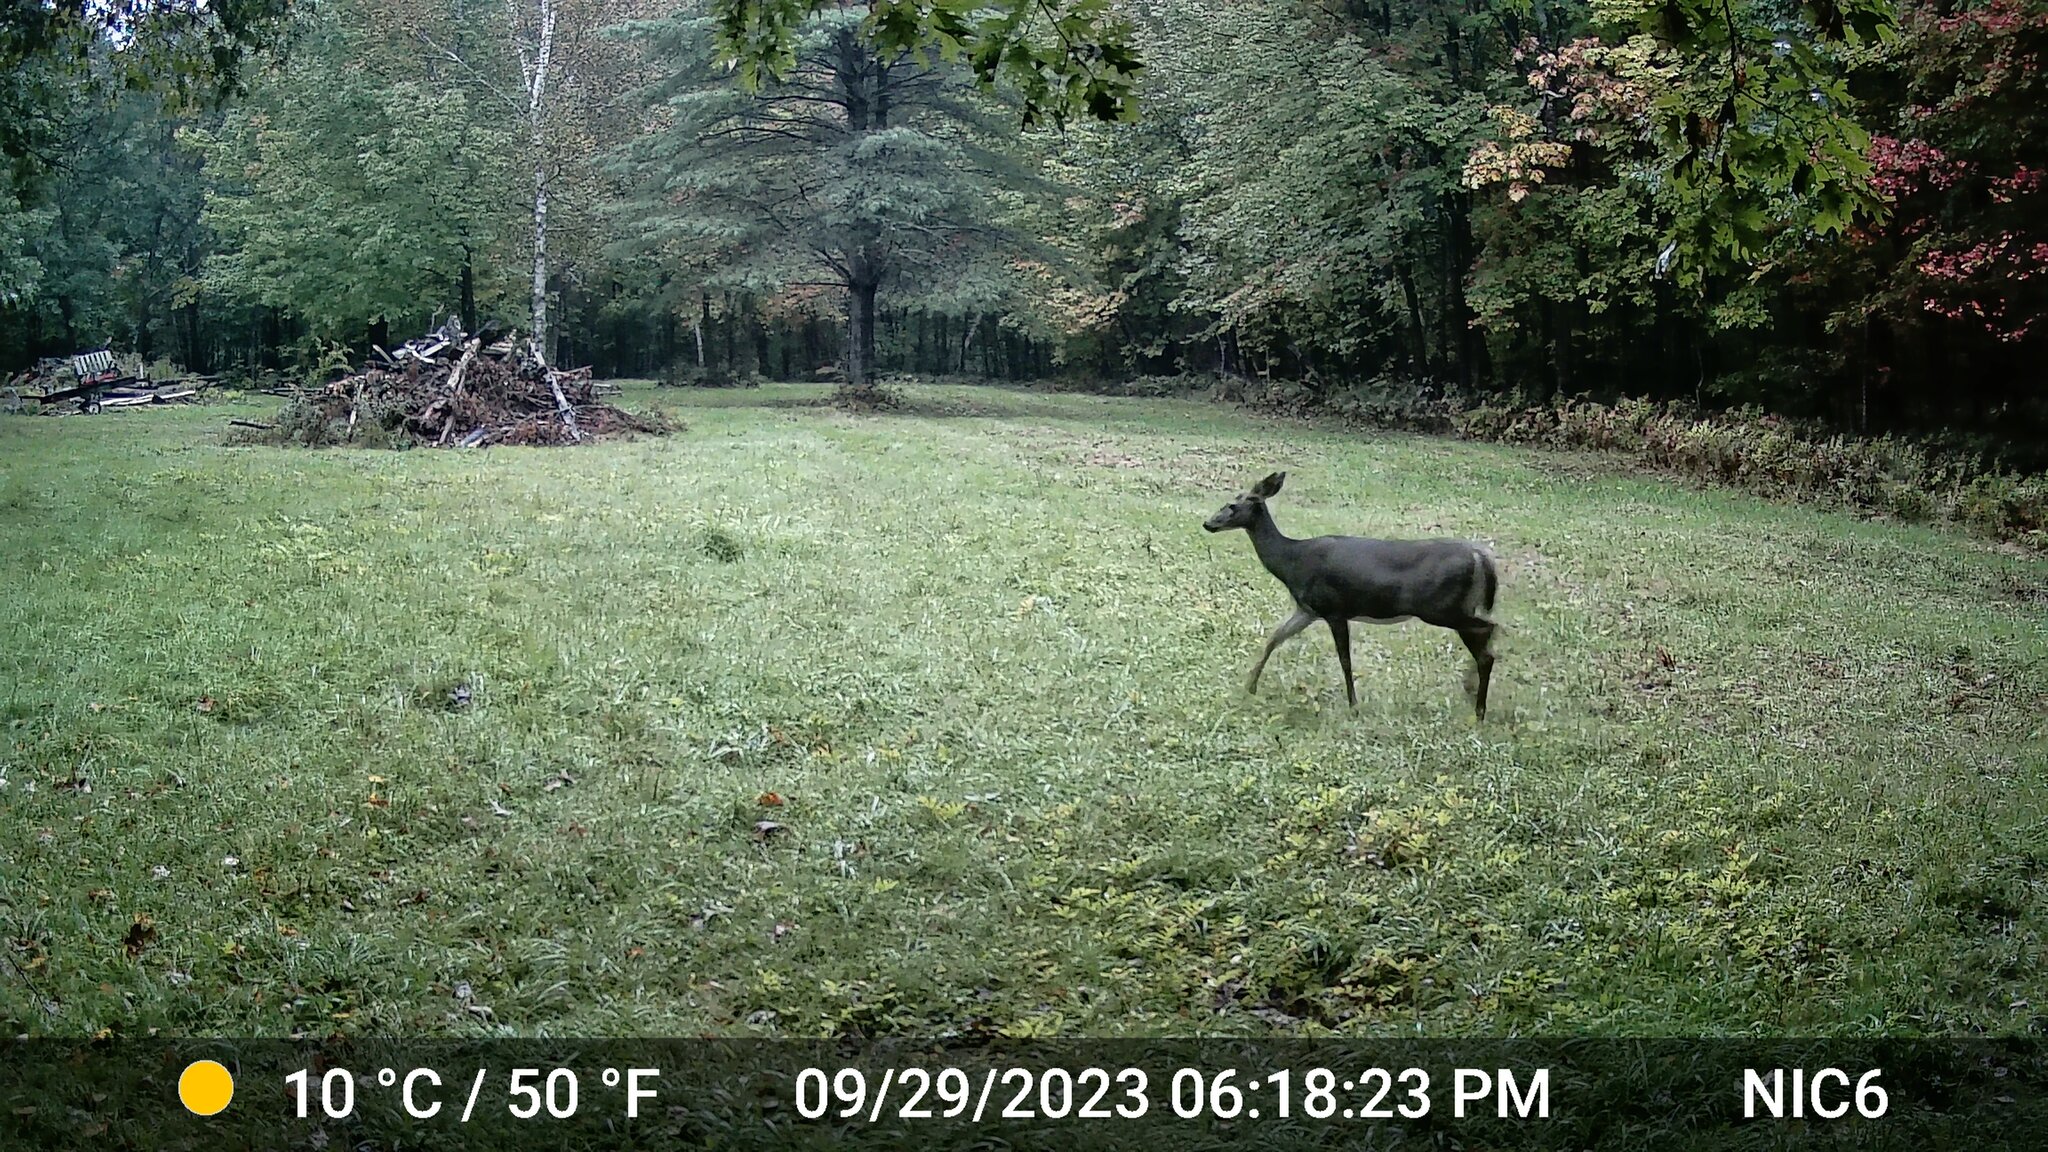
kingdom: Animalia
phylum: Chordata
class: Mammalia
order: Artiodactyla
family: Cervidae
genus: Odocoileus
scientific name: Odocoileus virginianus
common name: White-tailed deer
